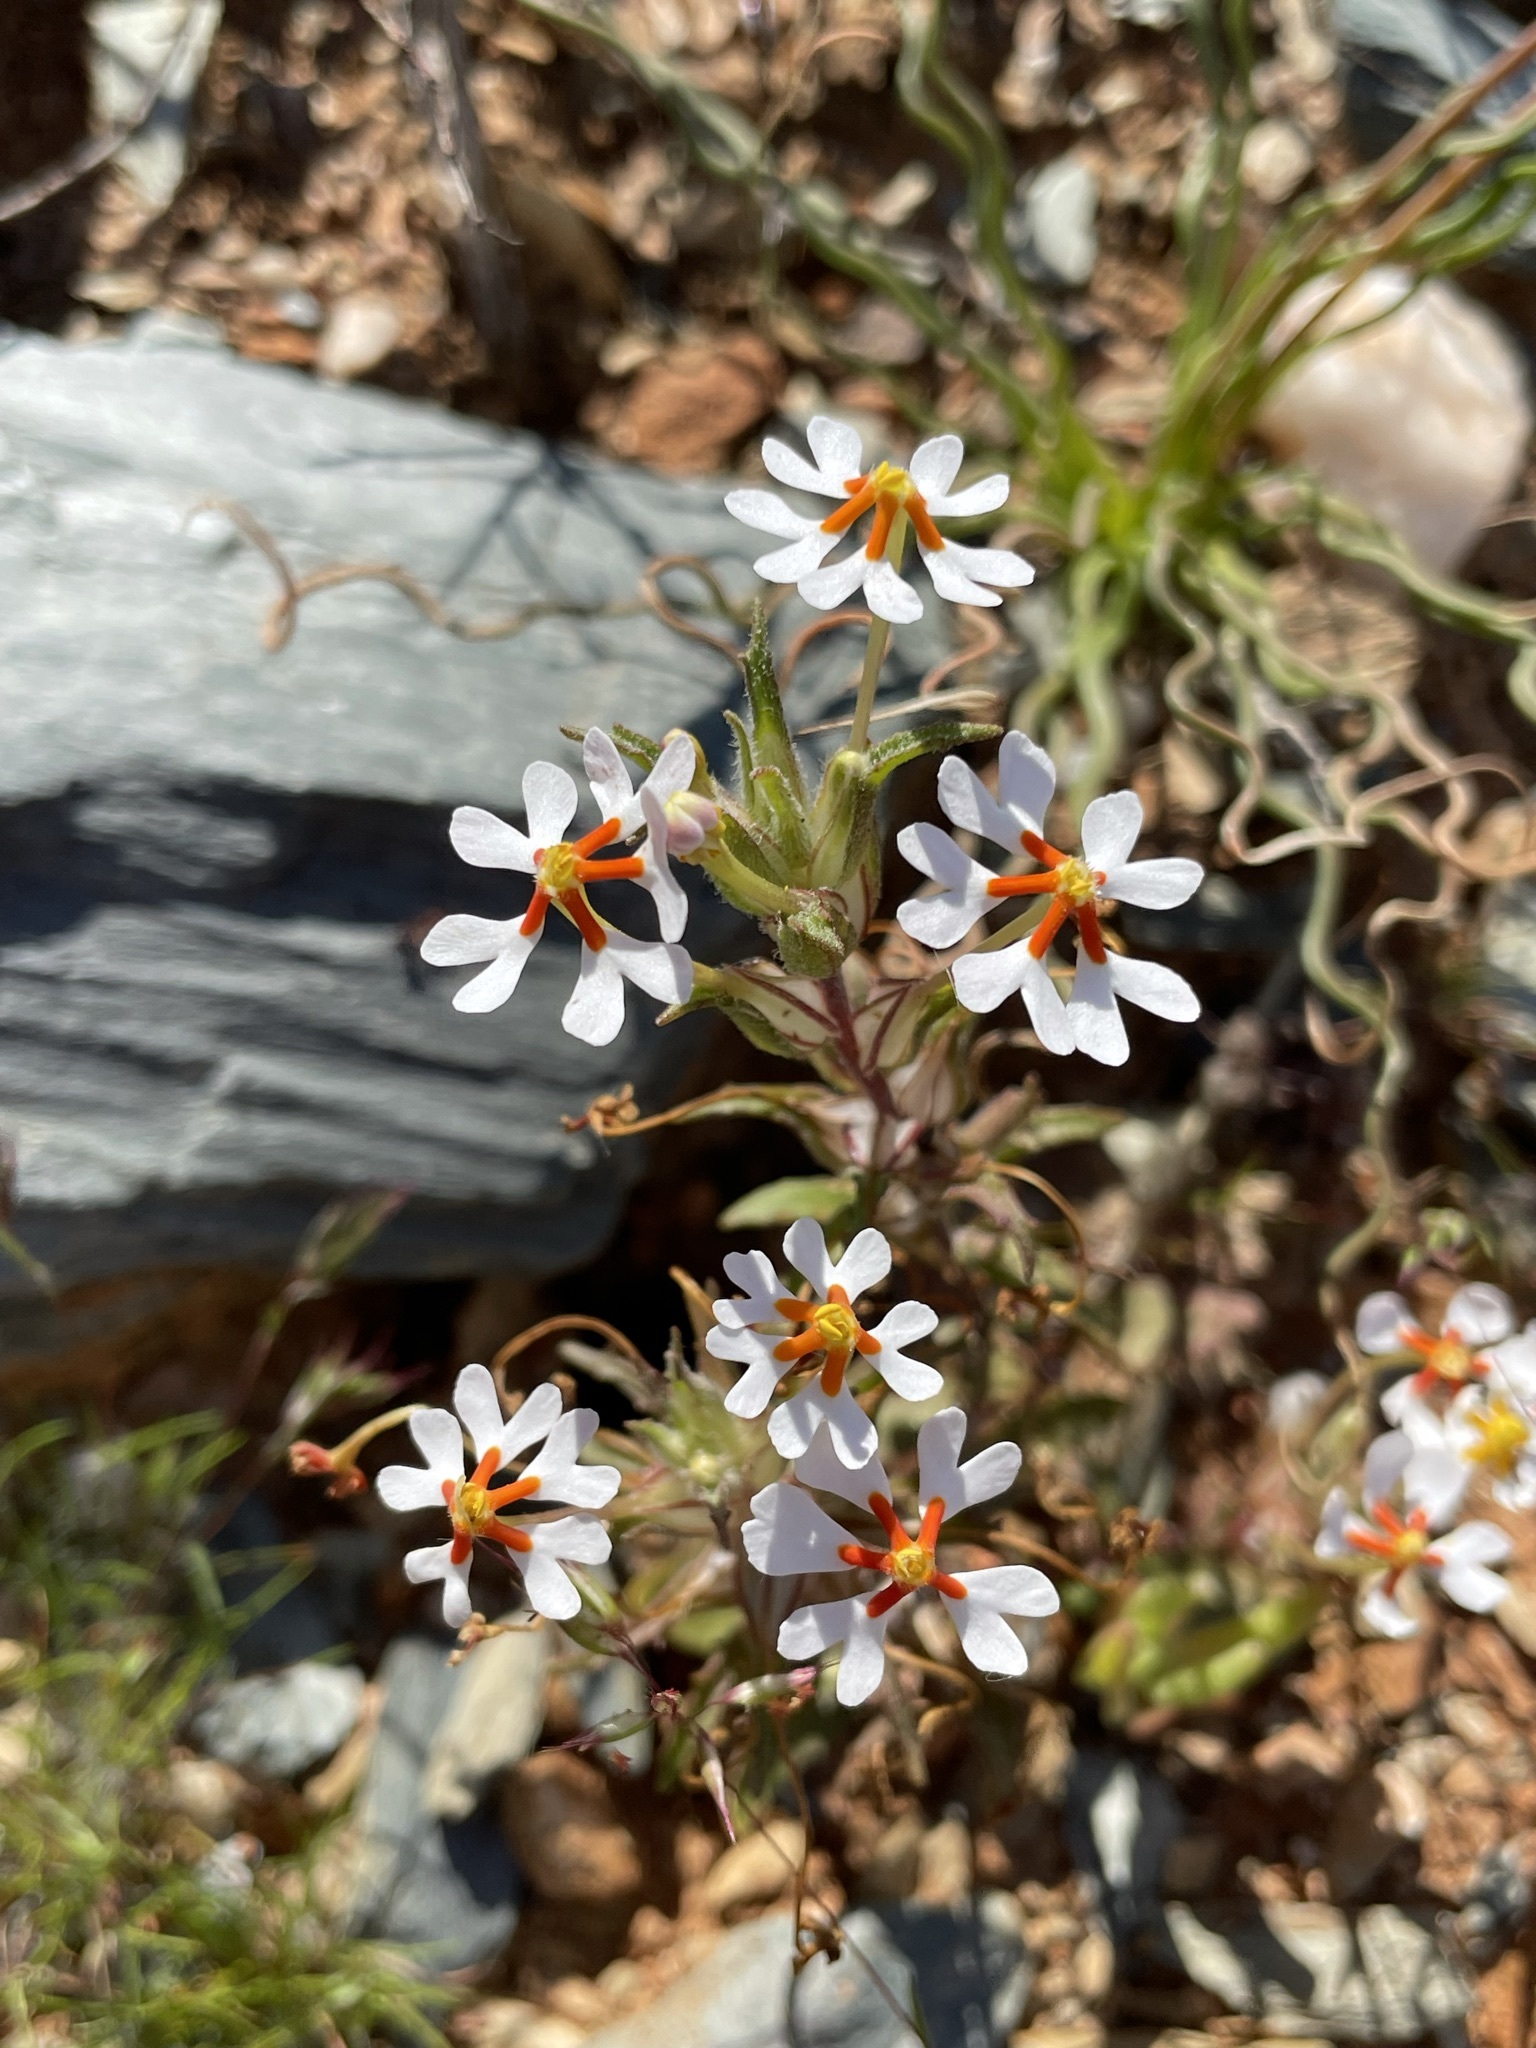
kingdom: Plantae
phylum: Tracheophyta
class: Magnoliopsida
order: Lamiales
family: Scrophulariaceae
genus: Zaluzianskya
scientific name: Zaluzianskya pumila
